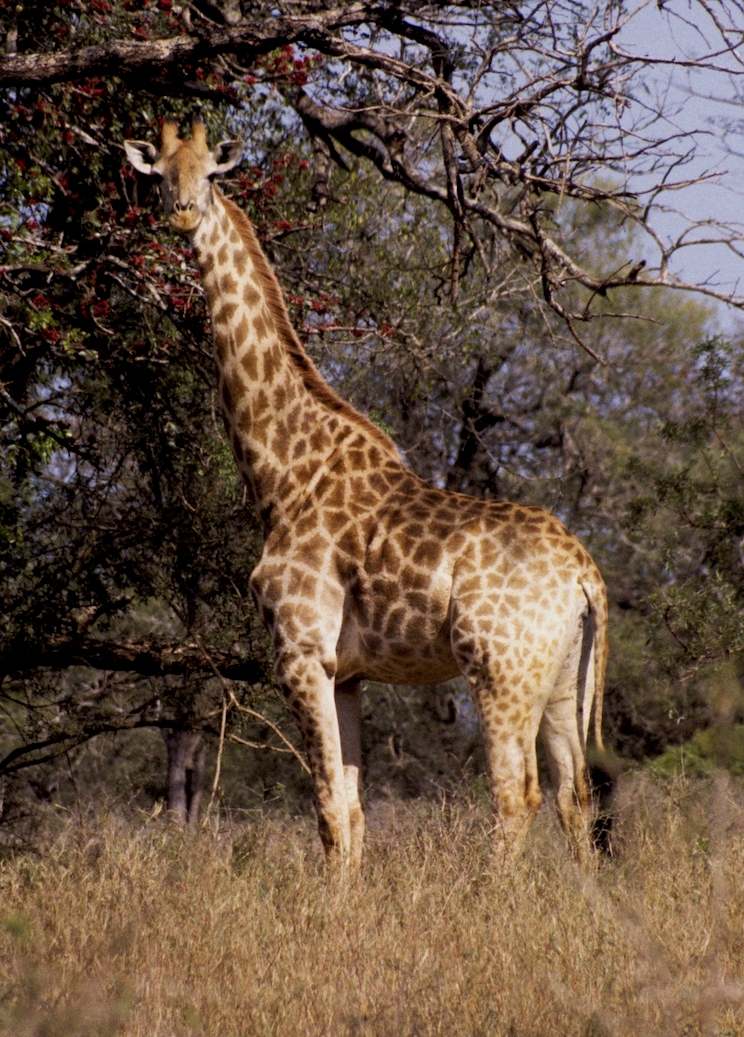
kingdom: Animalia
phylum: Chordata
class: Mammalia
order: Artiodactyla
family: Giraffidae
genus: Giraffa
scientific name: Giraffa giraffa
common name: Southern giraffe
